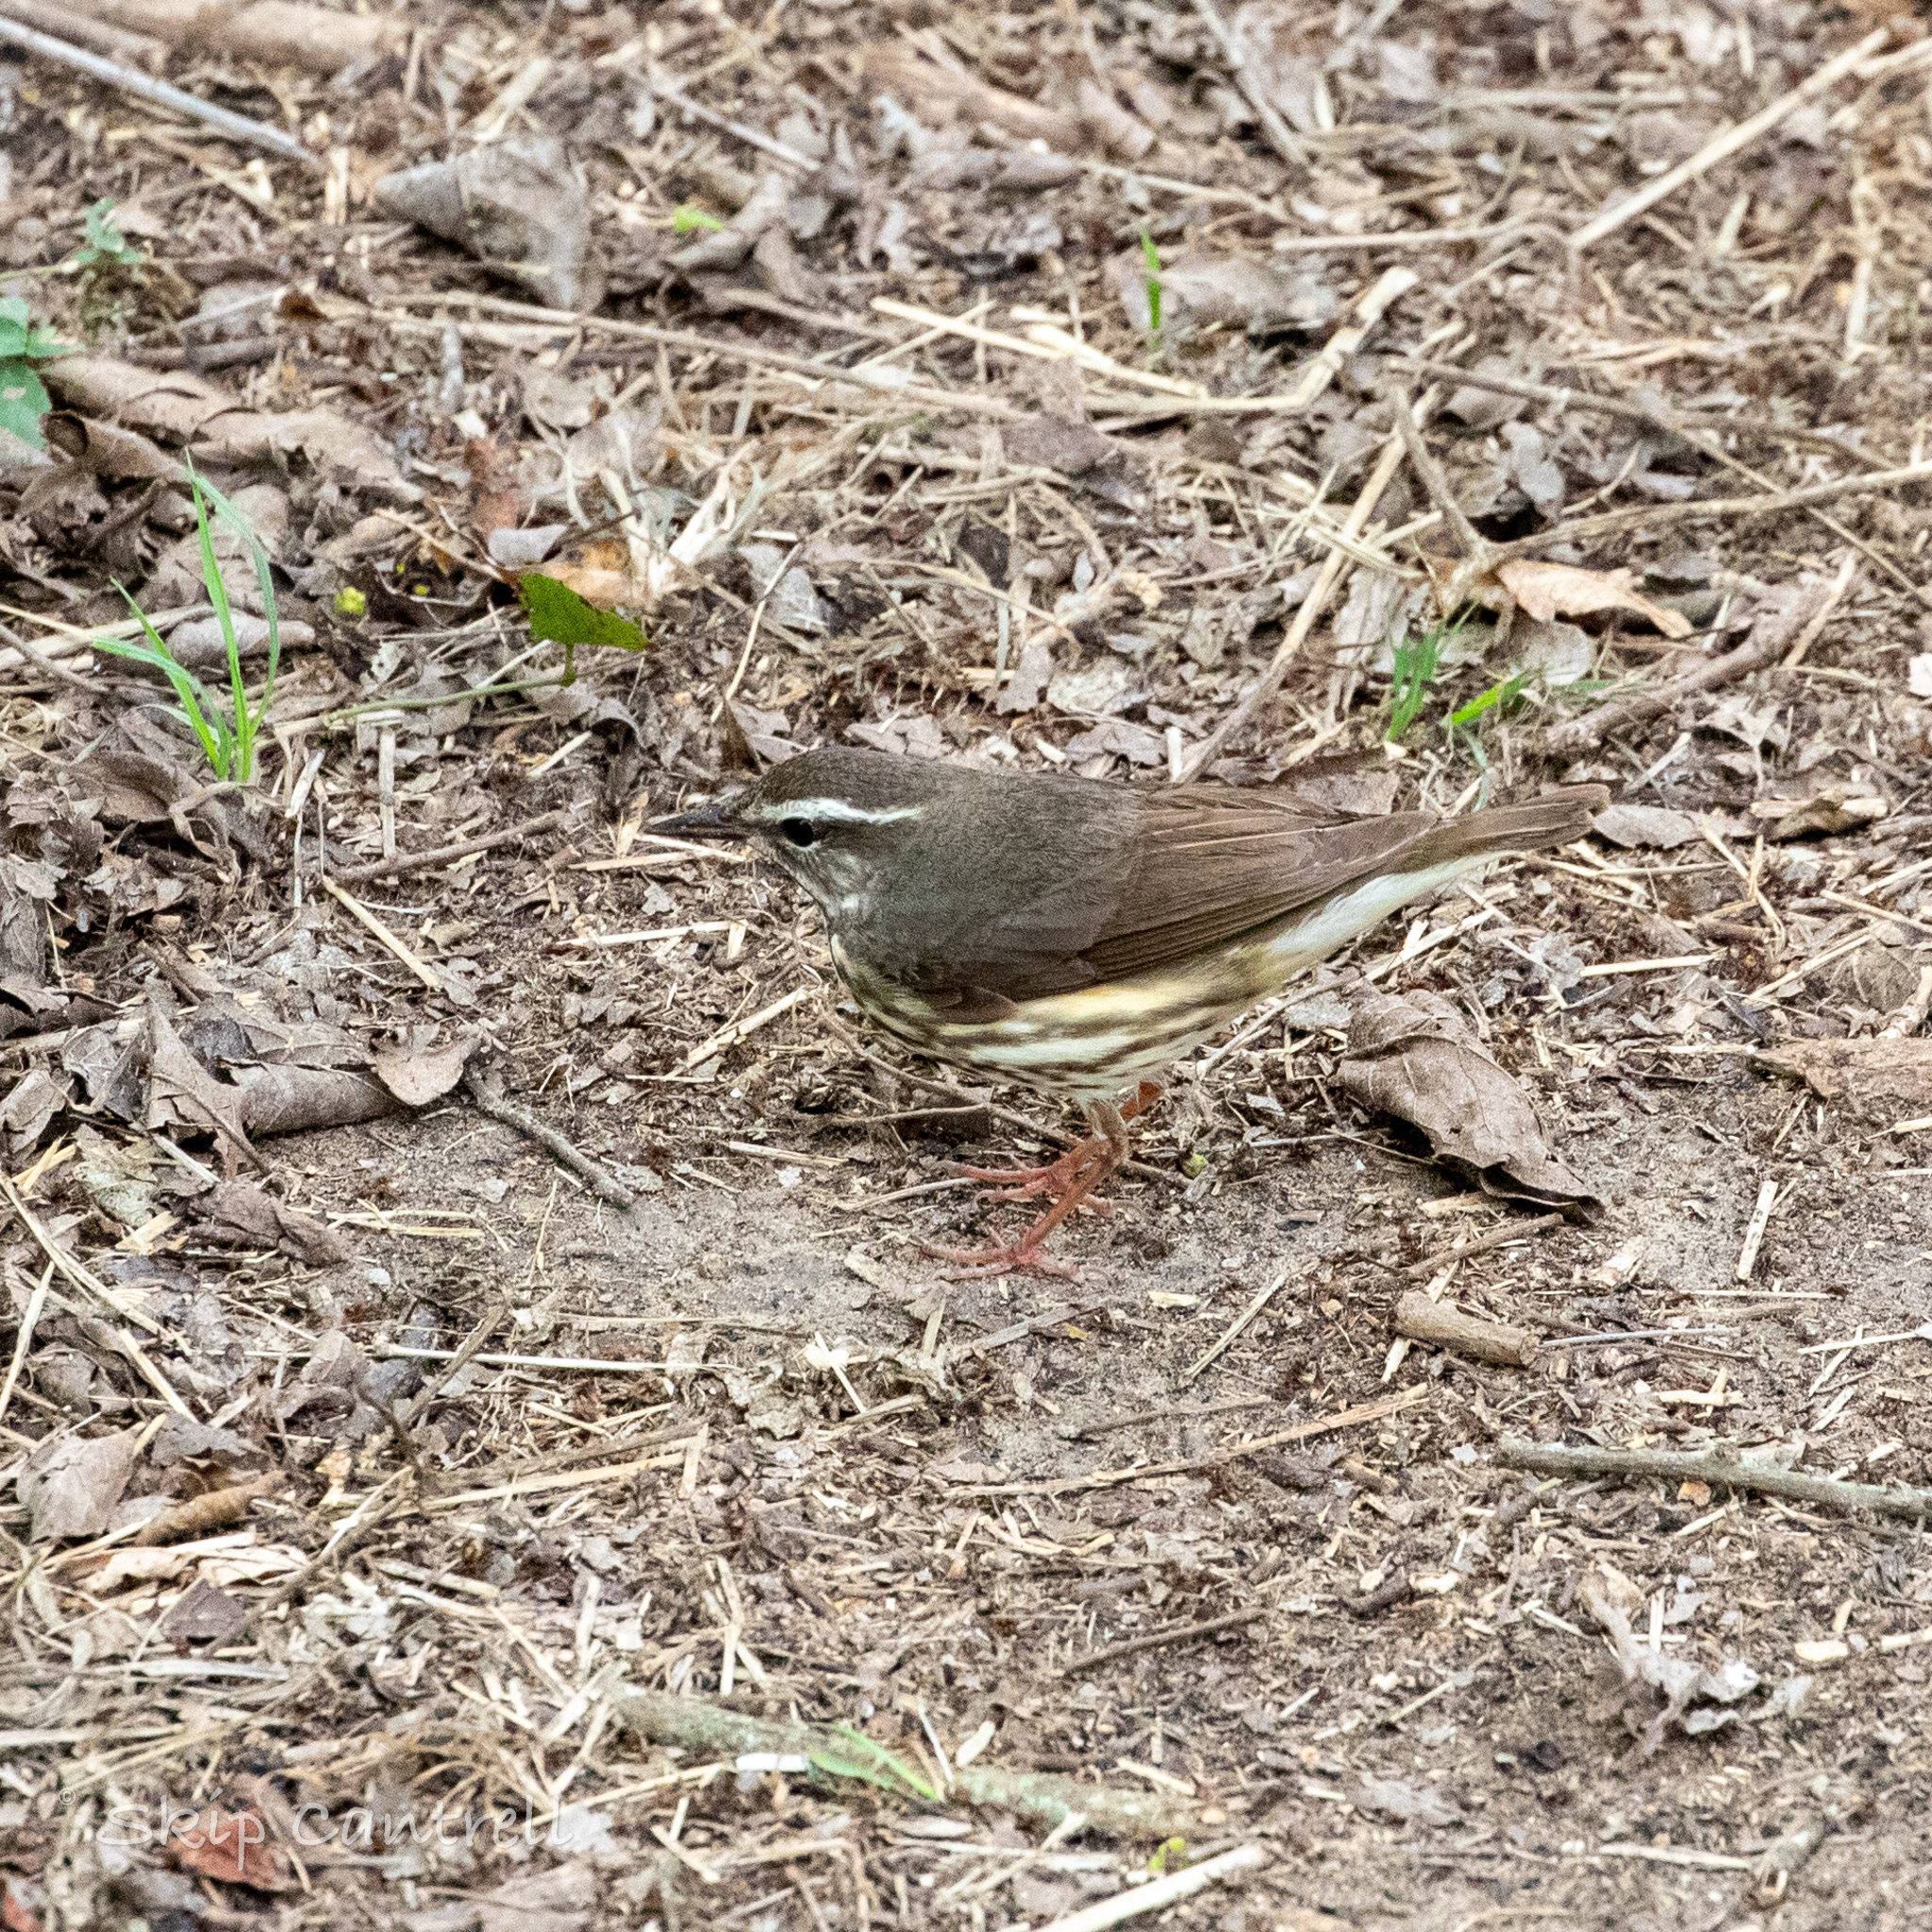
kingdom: Animalia
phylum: Chordata
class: Aves
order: Passeriformes
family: Parulidae
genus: Parkesia
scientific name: Parkesia motacilla
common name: Louisiana waterthrush
